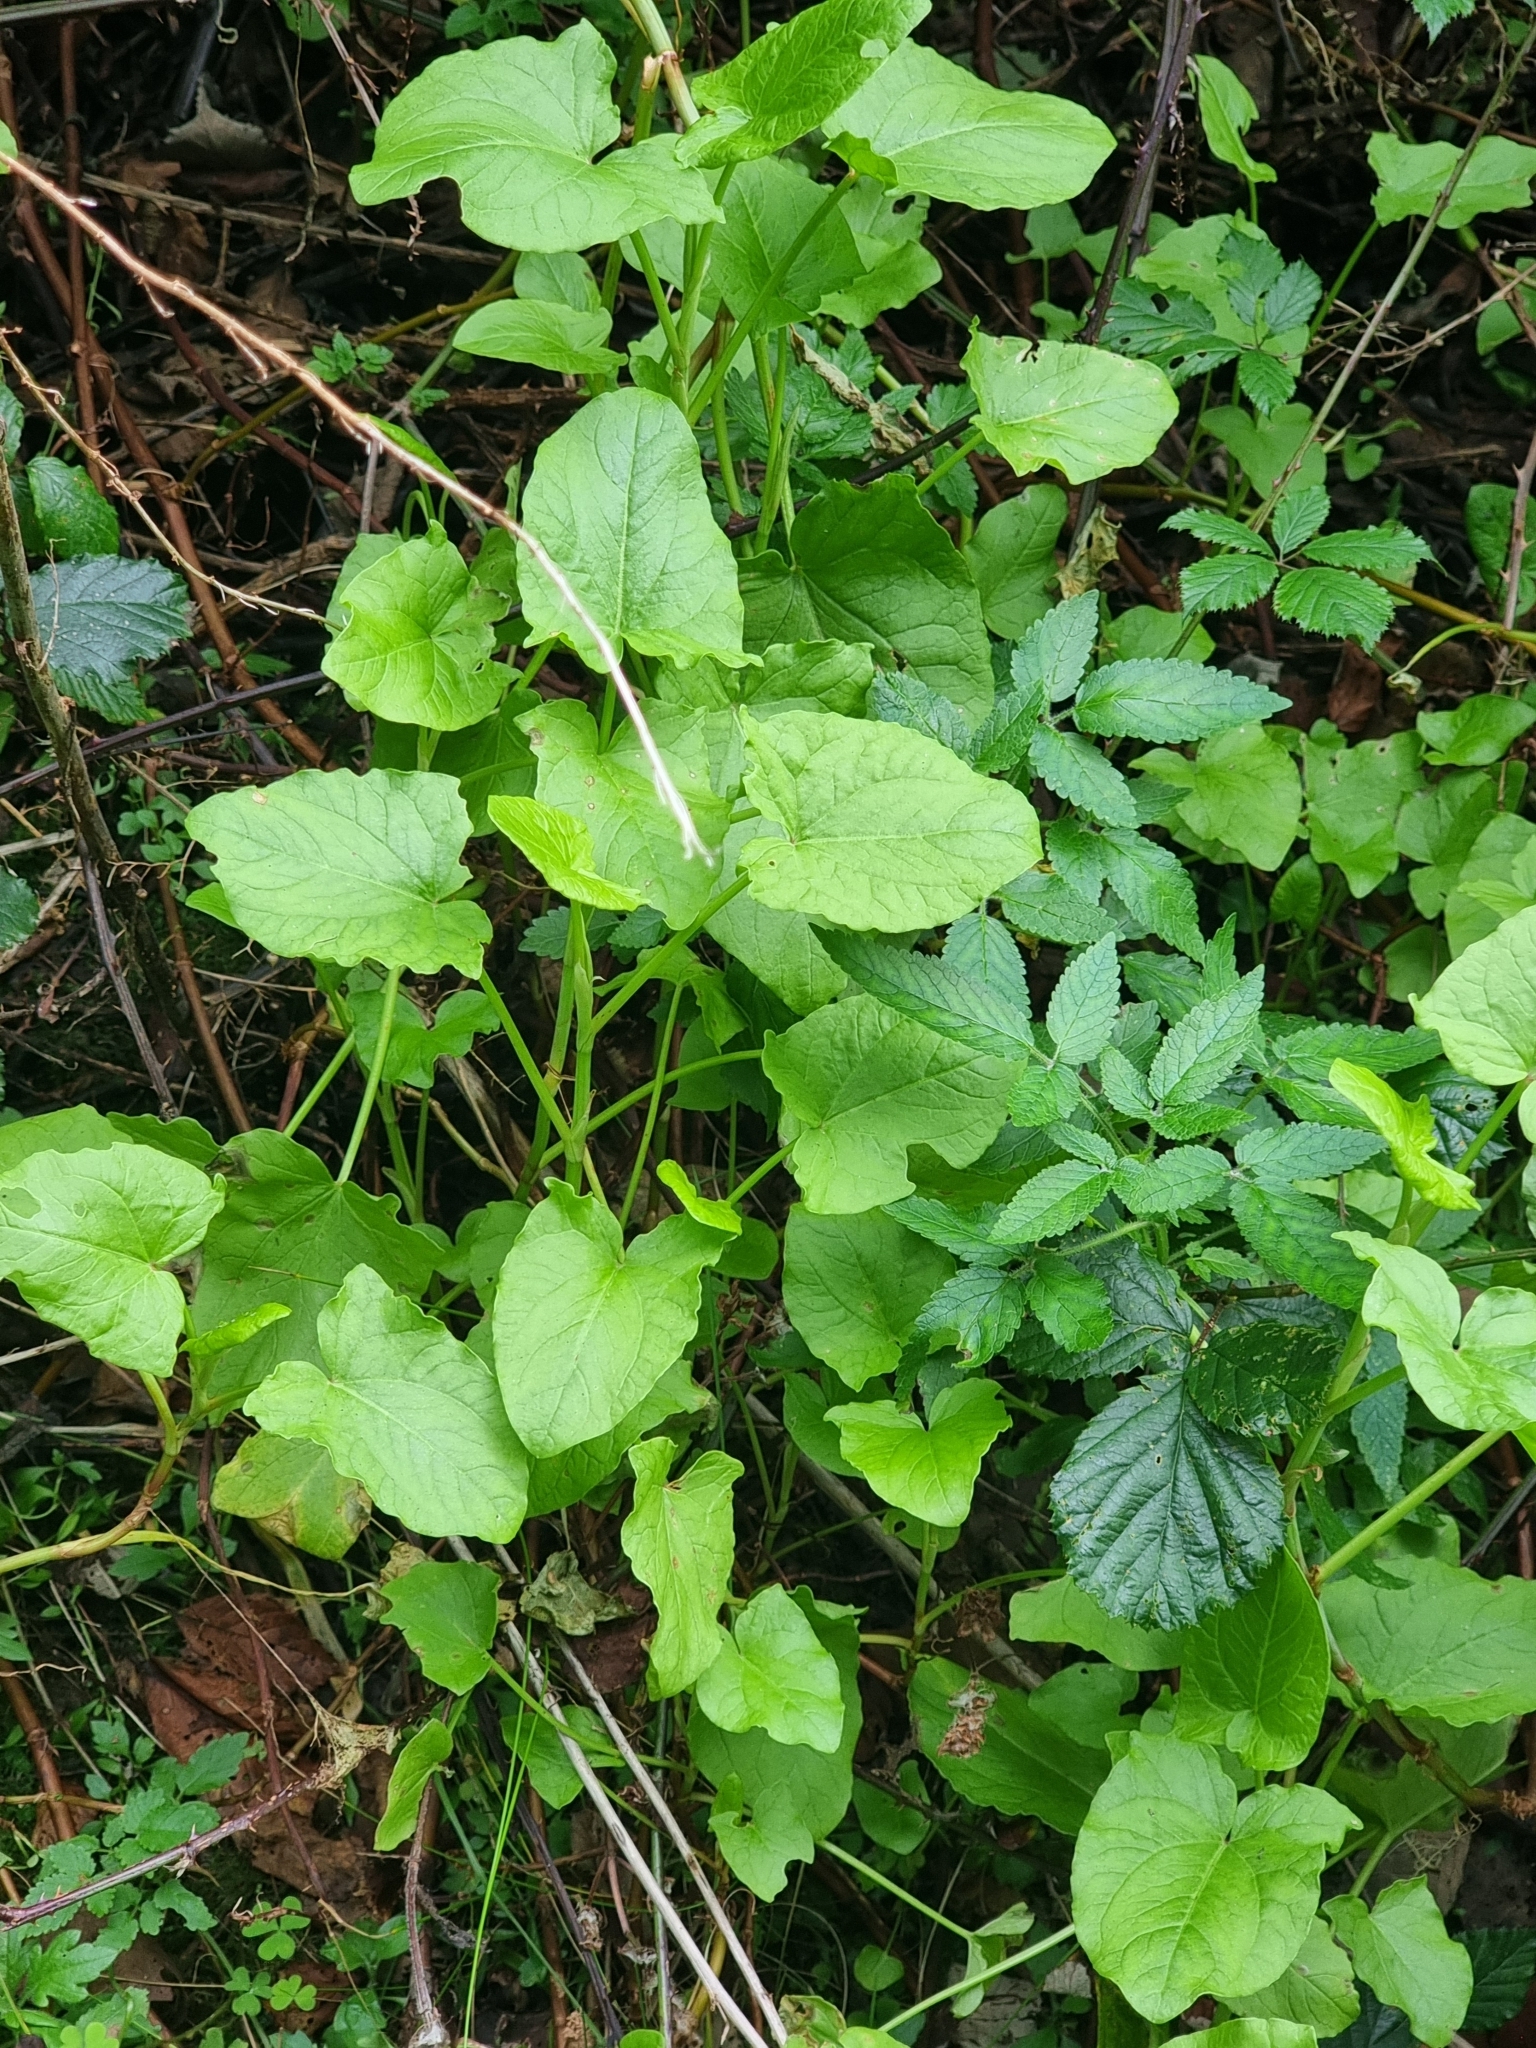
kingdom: Plantae
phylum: Tracheophyta
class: Magnoliopsida
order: Caryophyllales
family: Polygonaceae
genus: Rumex
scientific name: Rumex maderensis
